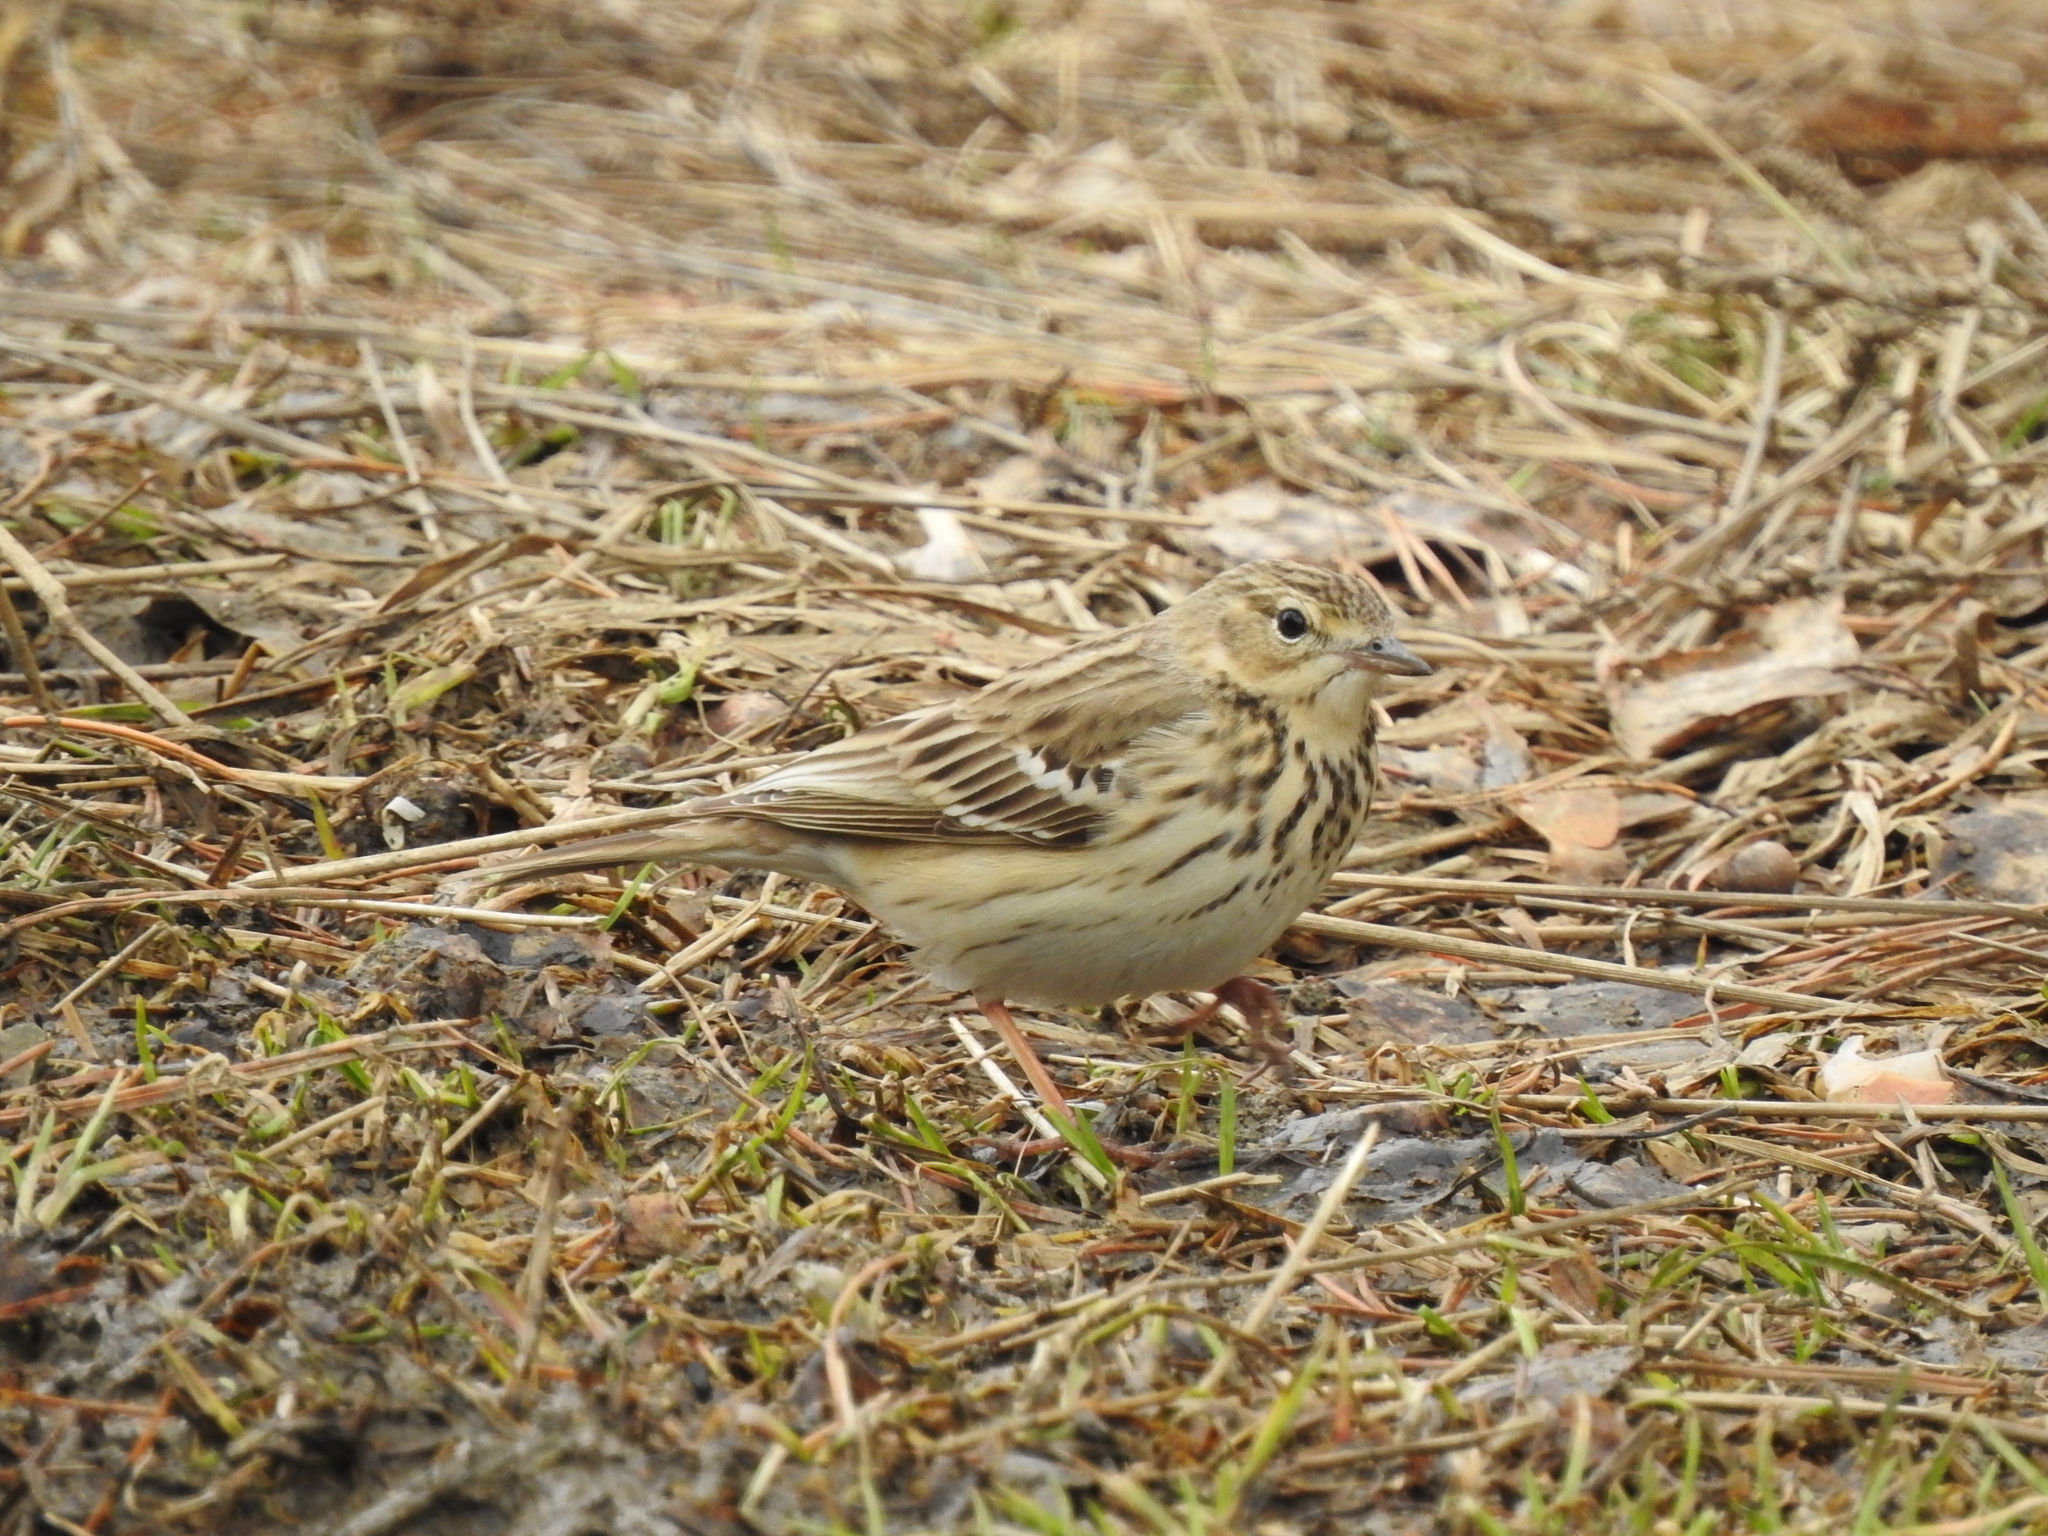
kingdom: Animalia
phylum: Chordata
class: Aves
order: Passeriformes
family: Motacillidae
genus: Anthus
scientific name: Anthus trivialis
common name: Tree pipit
